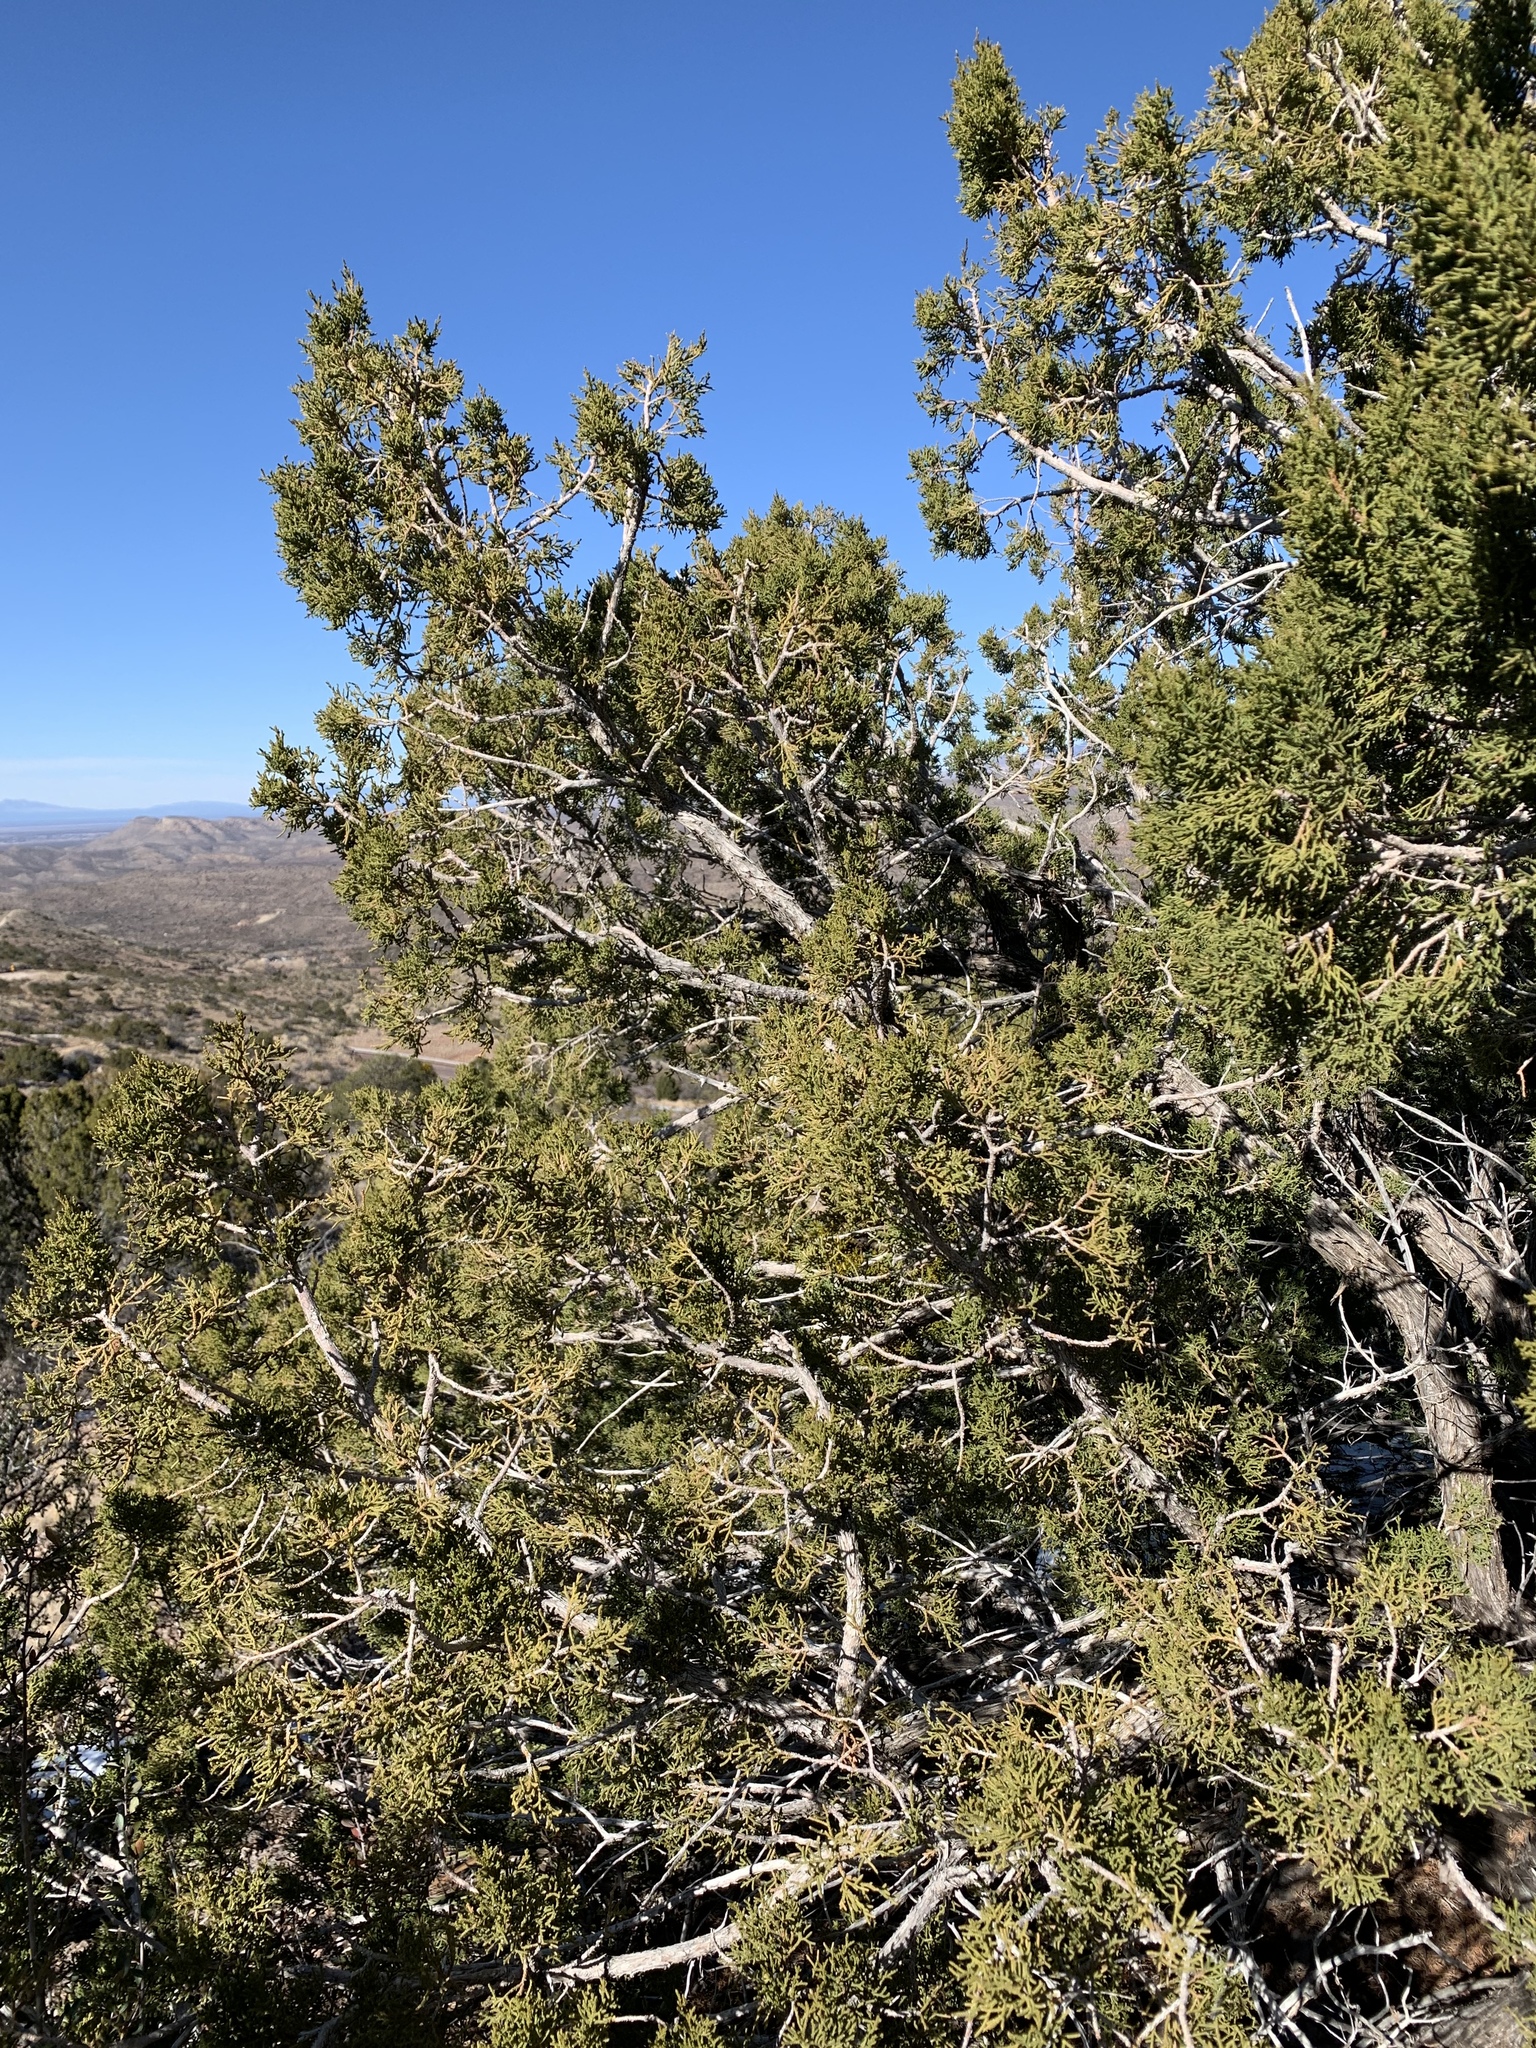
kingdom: Plantae
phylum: Tracheophyta
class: Pinopsida
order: Pinales
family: Cupressaceae
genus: Juniperus
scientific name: Juniperus monosperma
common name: One-seed juniper
